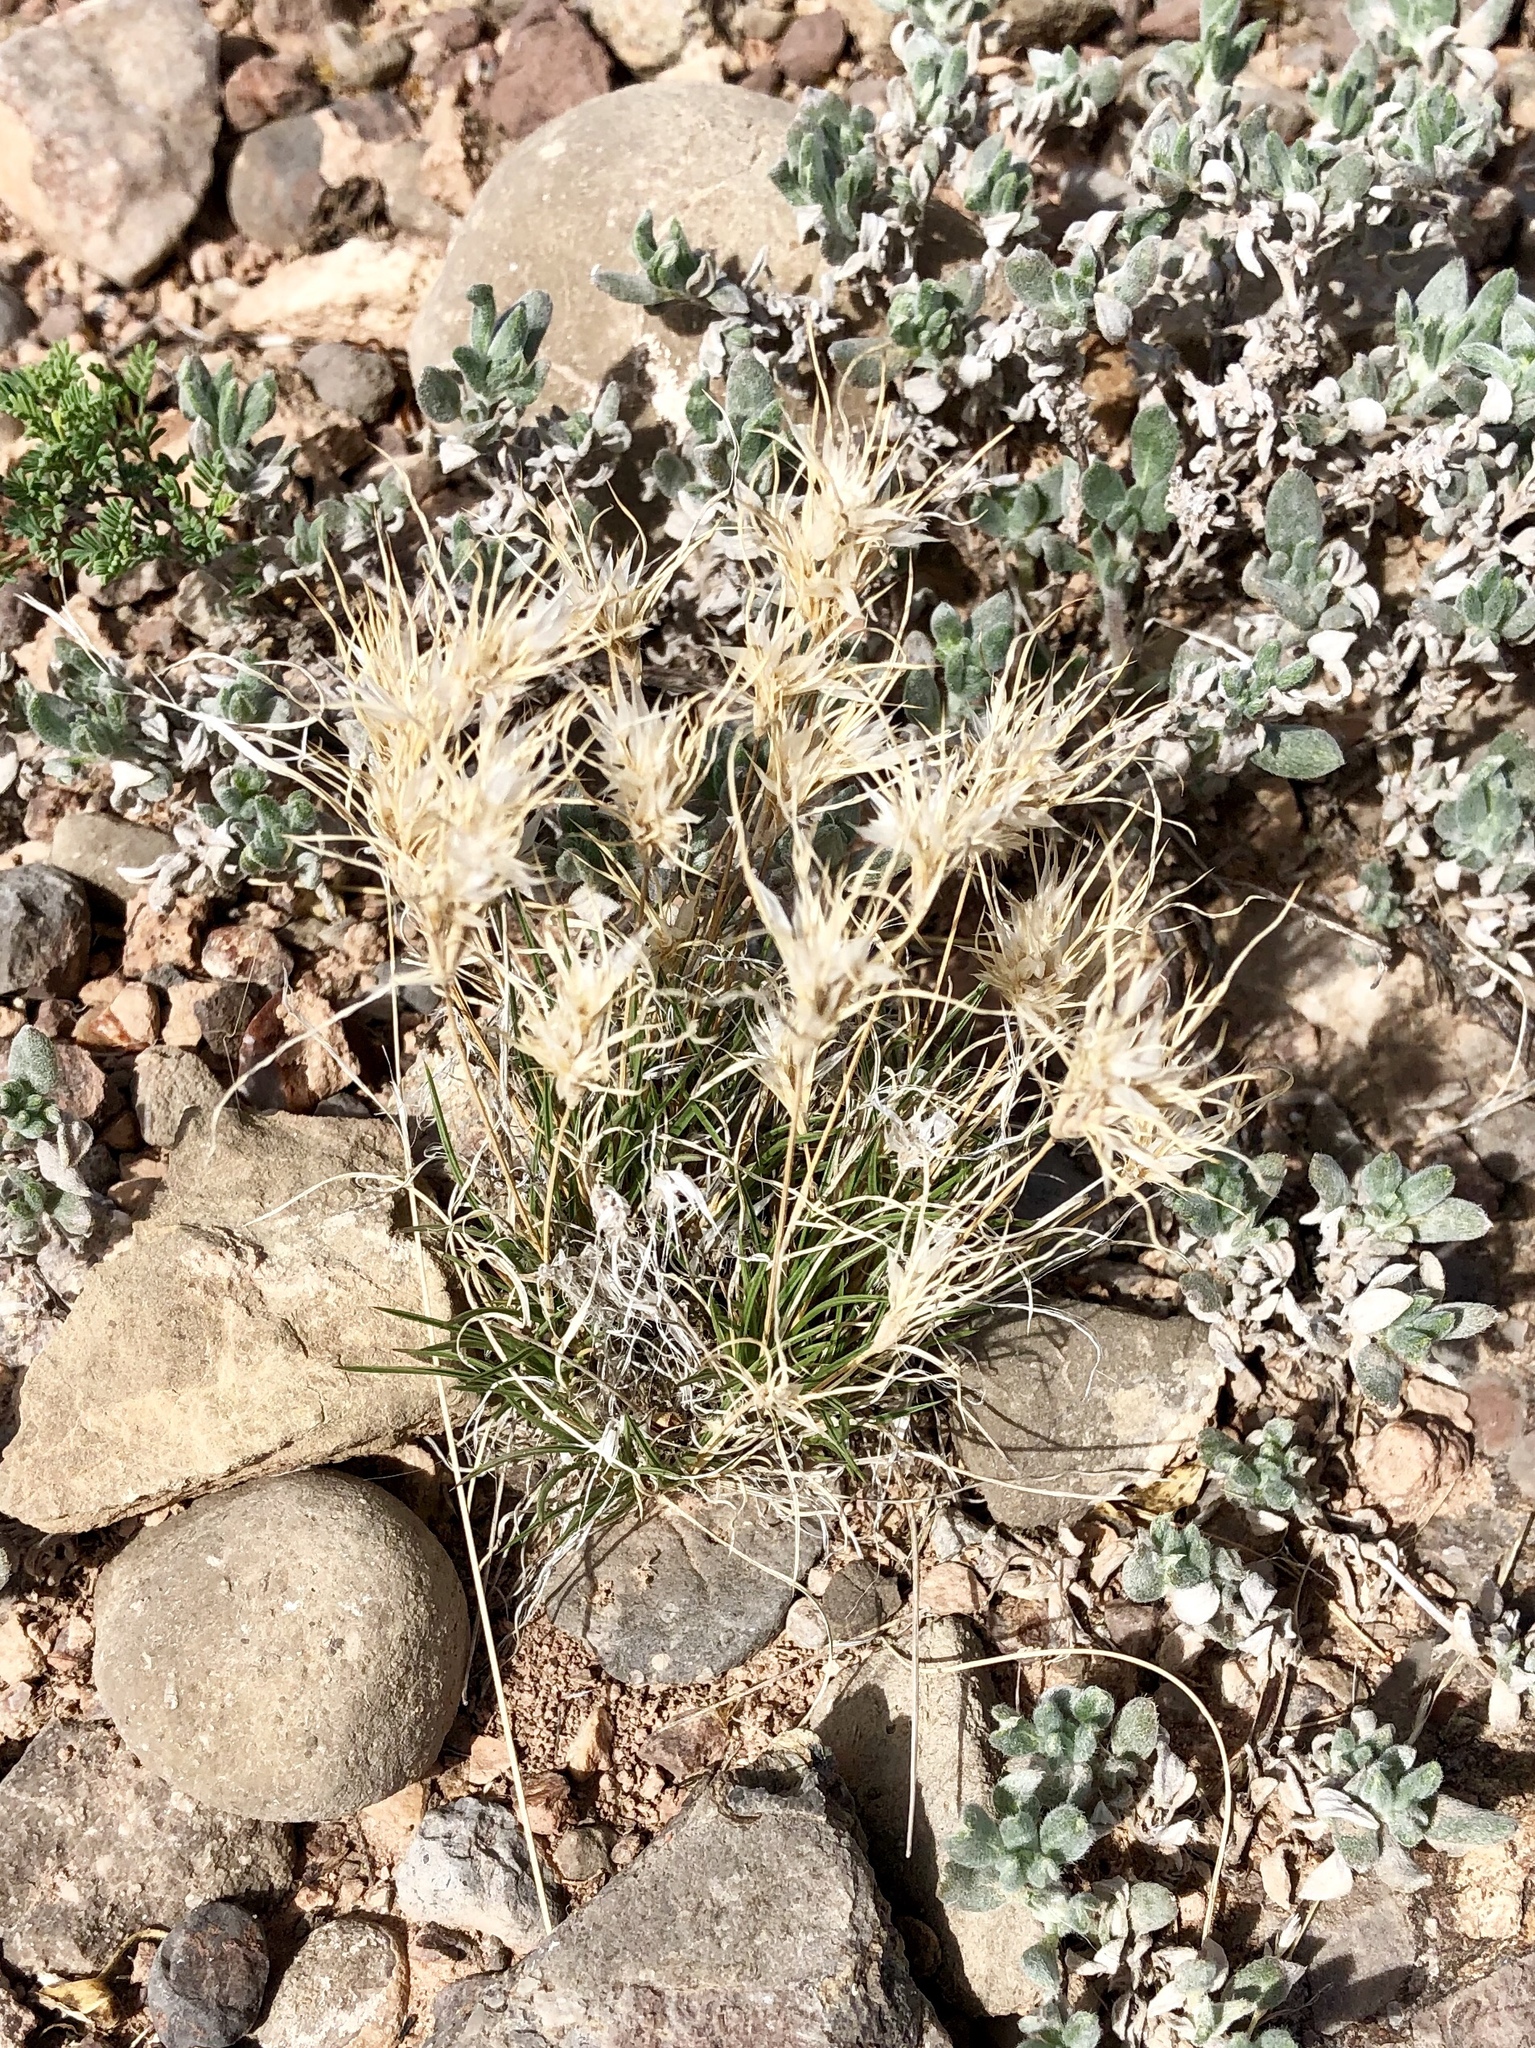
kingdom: Plantae
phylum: Tracheophyta
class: Liliopsida
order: Poales
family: Poaceae
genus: Dasyochloa
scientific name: Dasyochloa pulchella
